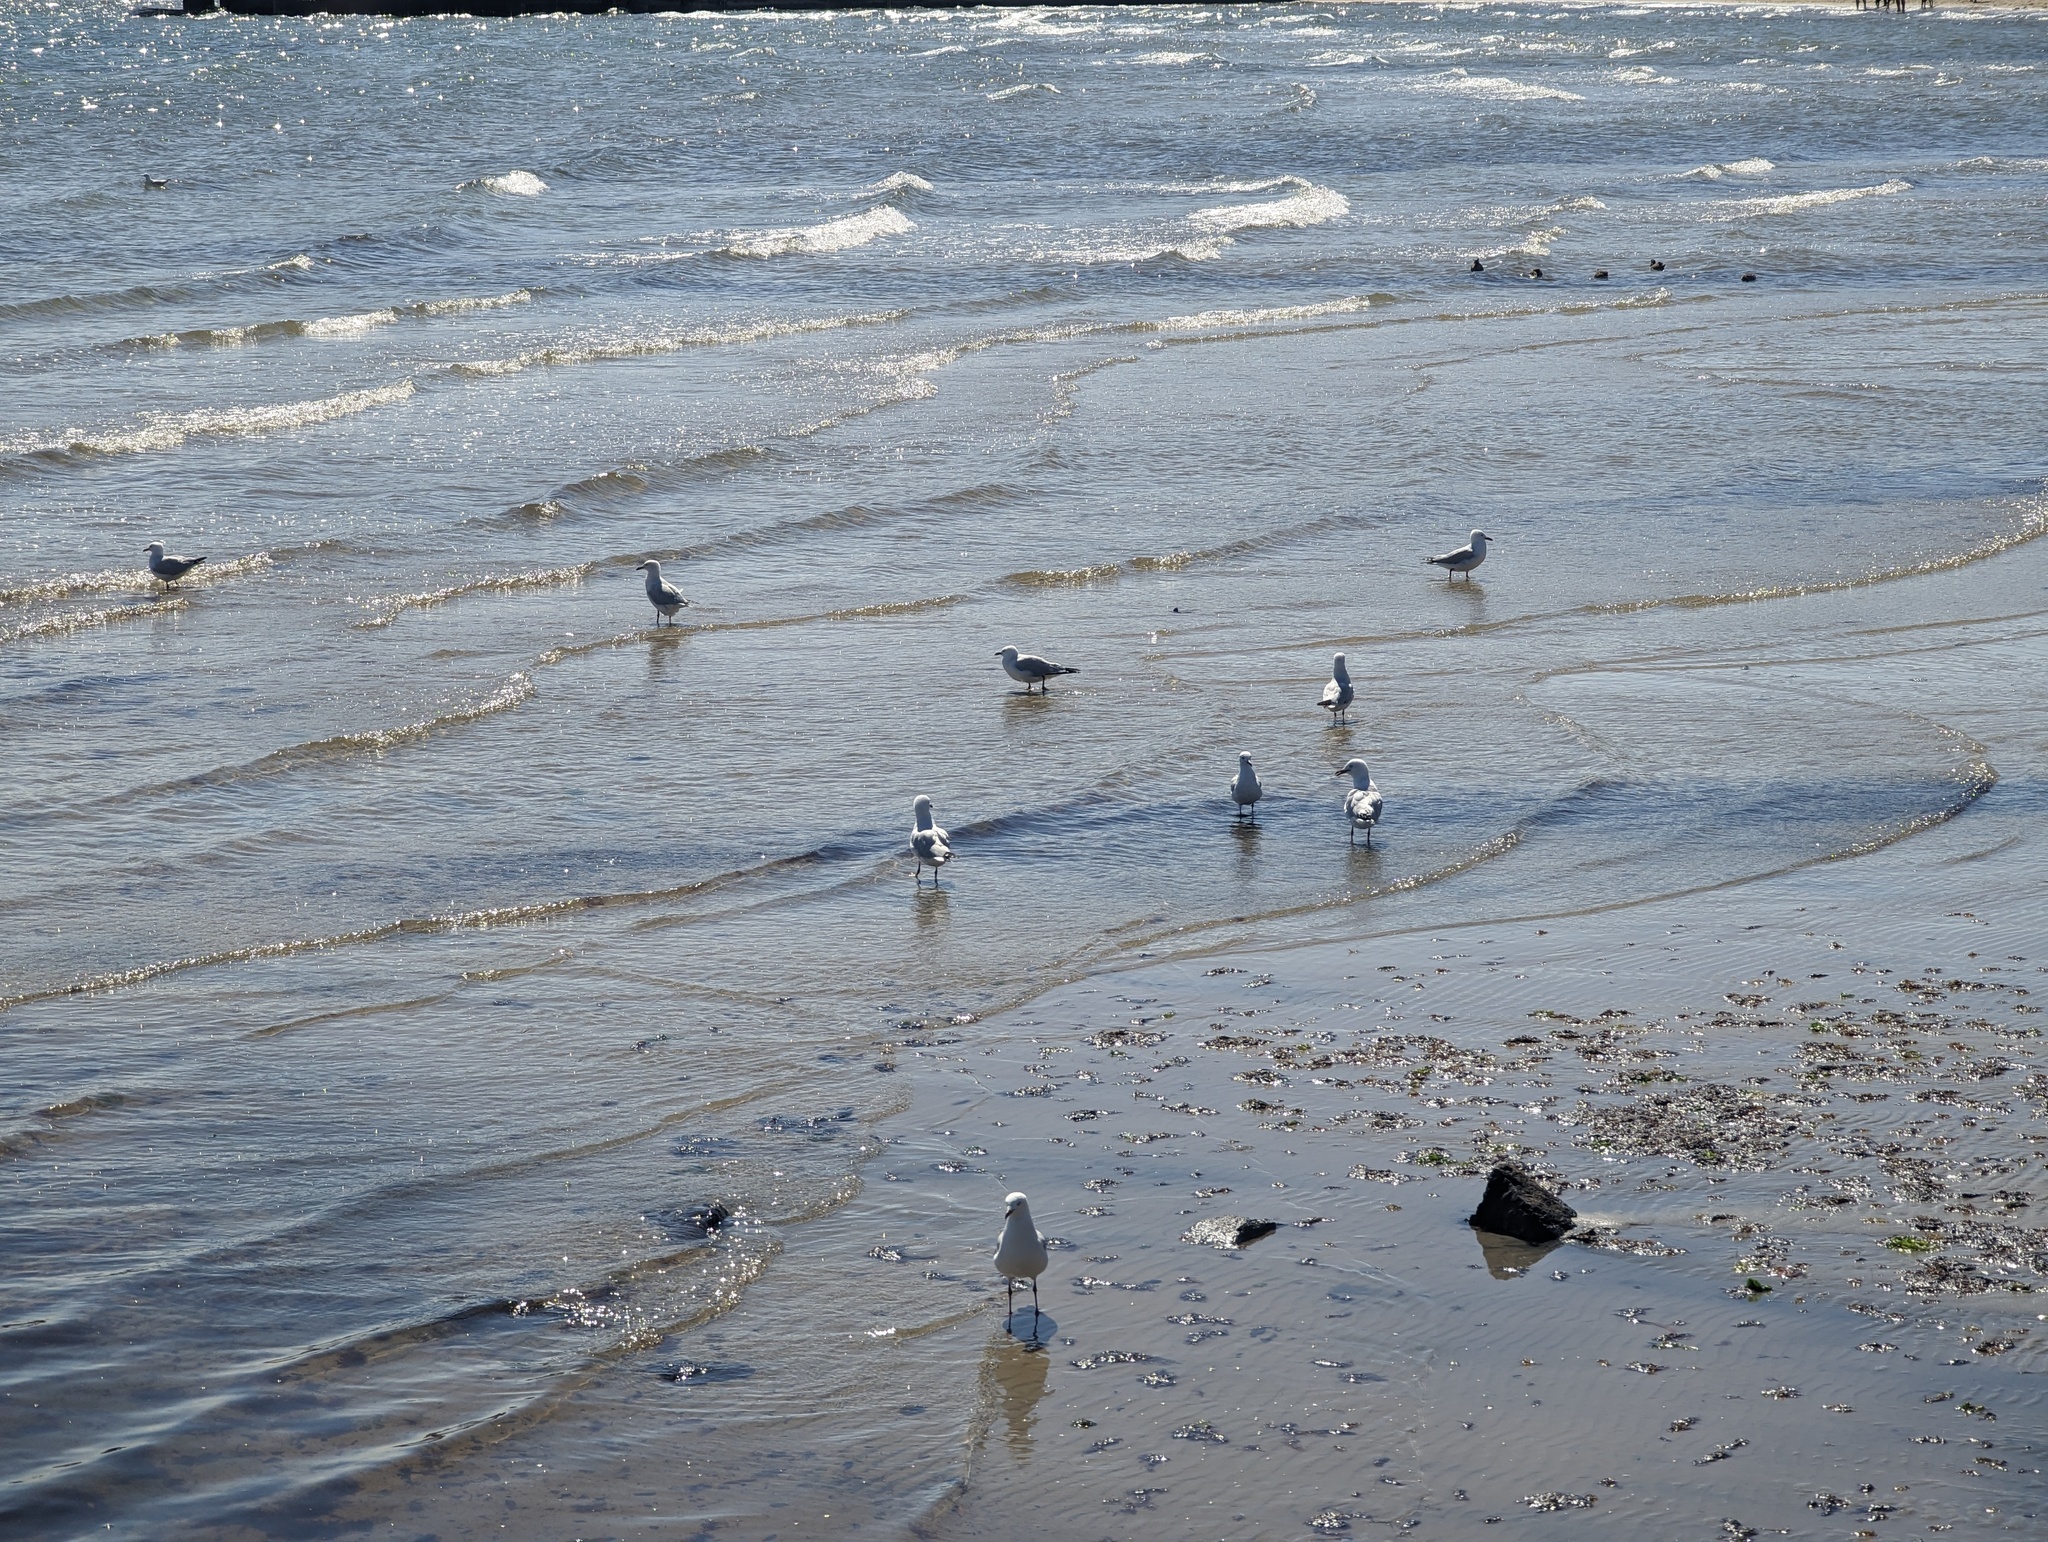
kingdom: Animalia
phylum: Chordata
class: Aves
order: Charadriiformes
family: Laridae
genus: Chroicocephalus
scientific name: Chroicocephalus novaehollandiae
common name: Silver gull
